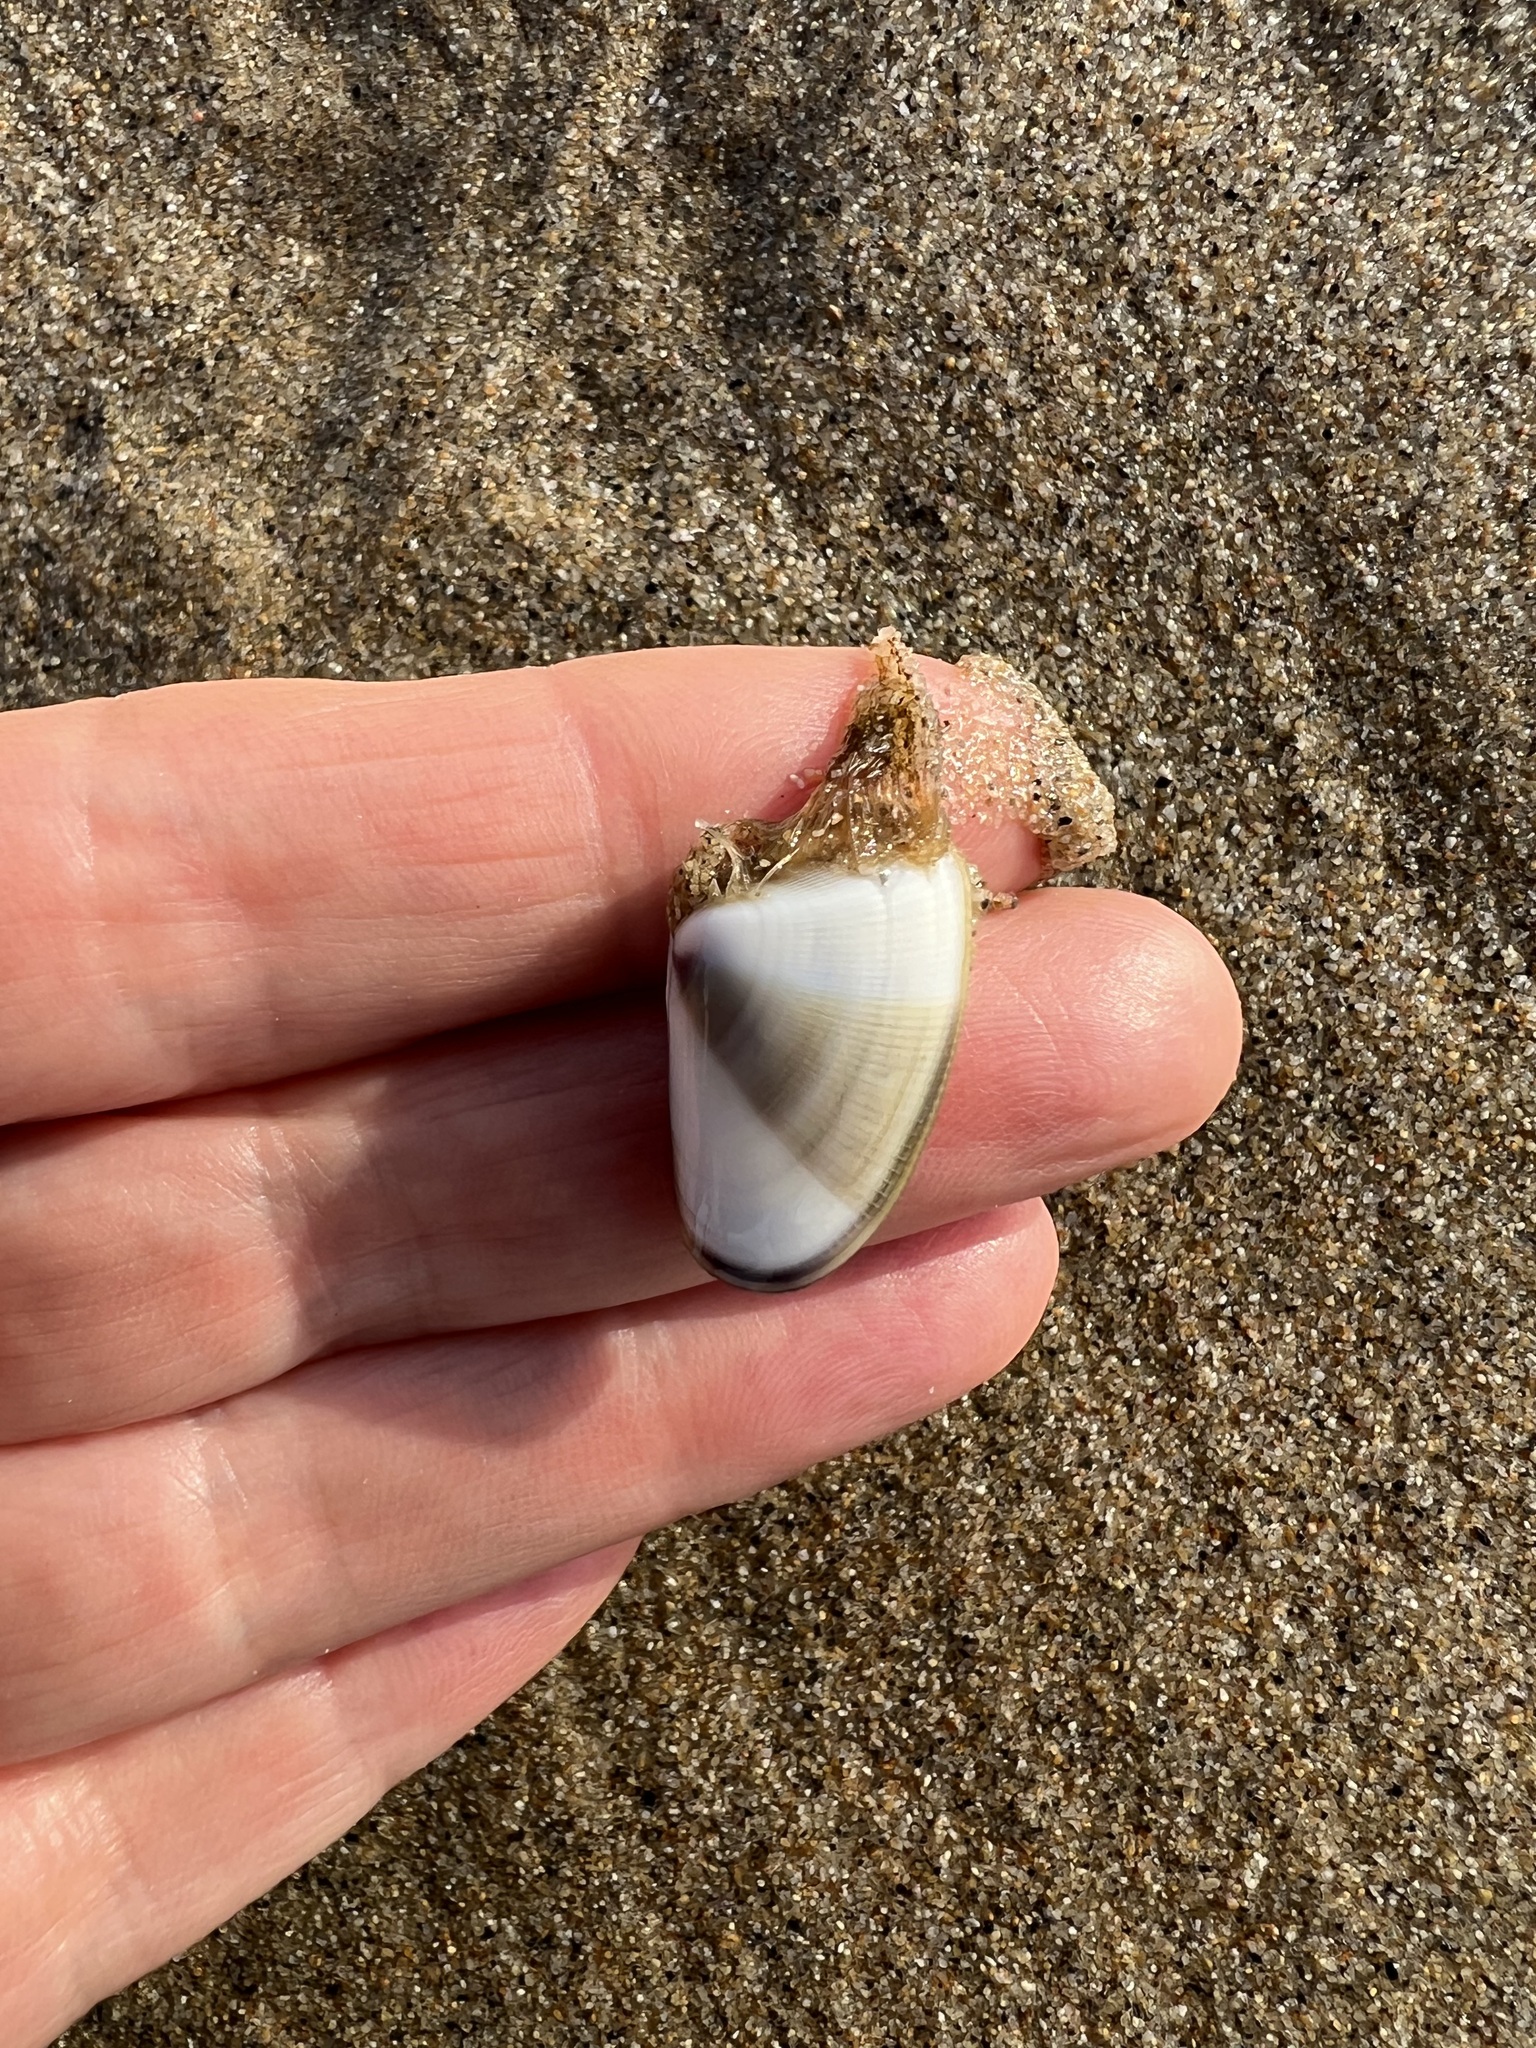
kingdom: Animalia
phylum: Cnidaria
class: Hydrozoa
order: Leptothecata
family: Lovenellidae
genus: Eucheilota
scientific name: Eucheilota bakeri
